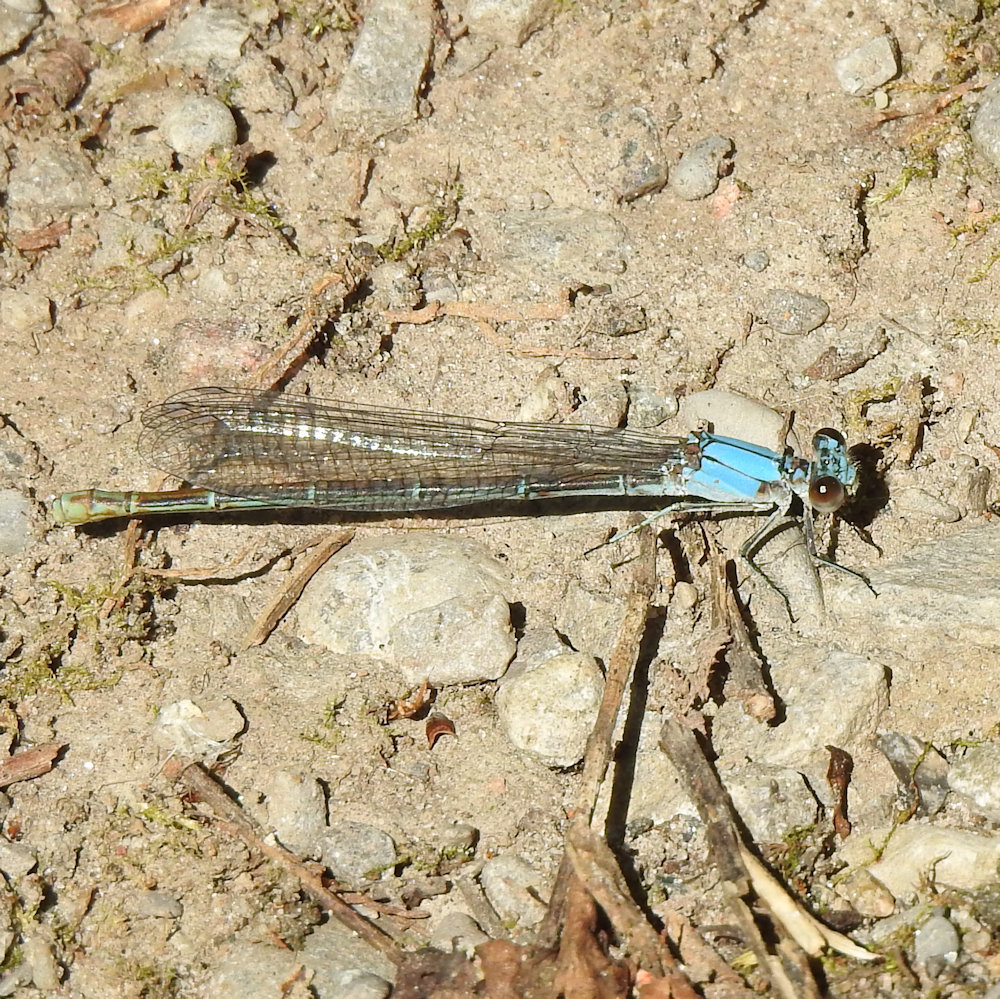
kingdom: Animalia
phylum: Arthropoda
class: Insecta
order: Odonata
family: Coenagrionidae
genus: Argia
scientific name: Argia moesta
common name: Powdered dancer
